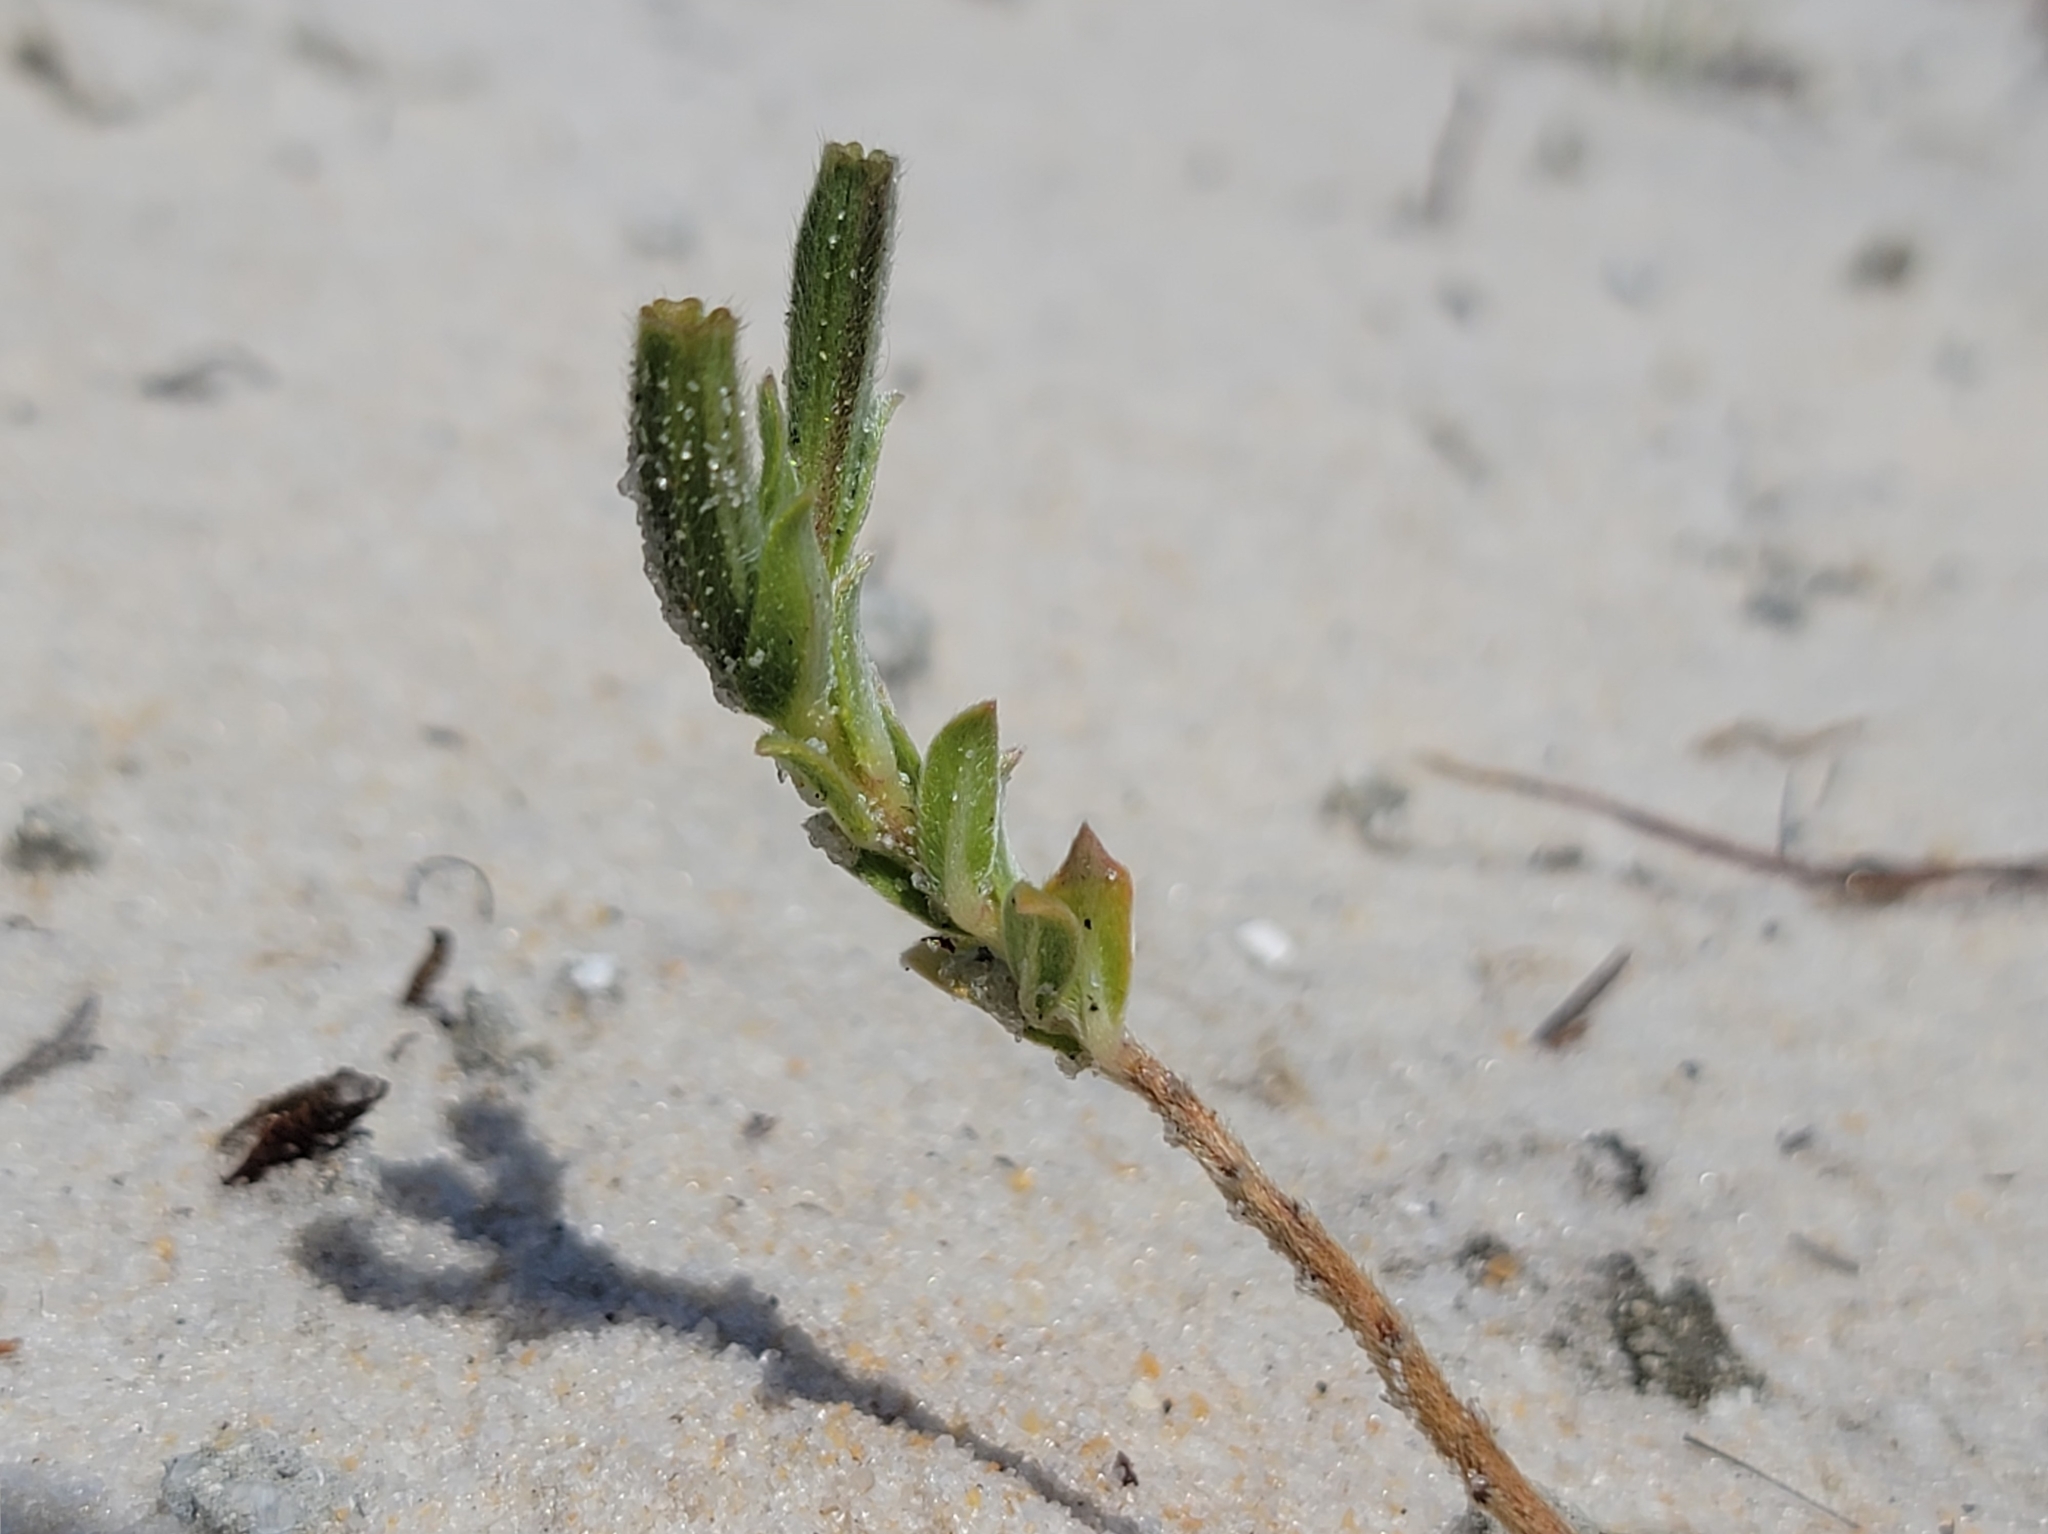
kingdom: Plantae
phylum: Tracheophyta
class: Magnoliopsida
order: Myrtales
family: Onagraceae
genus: Oenothera
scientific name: Oenothera humifusa
